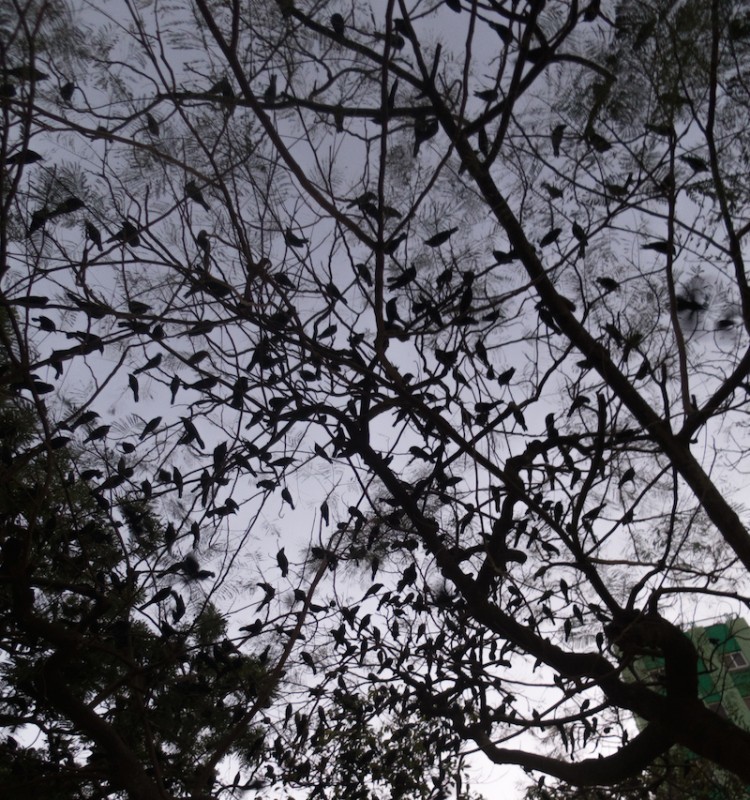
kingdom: Animalia
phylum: Chordata
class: Aves
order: Passeriformes
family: Icteridae
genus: Quiscalus
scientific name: Quiscalus niger
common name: Greater antillean grackle
